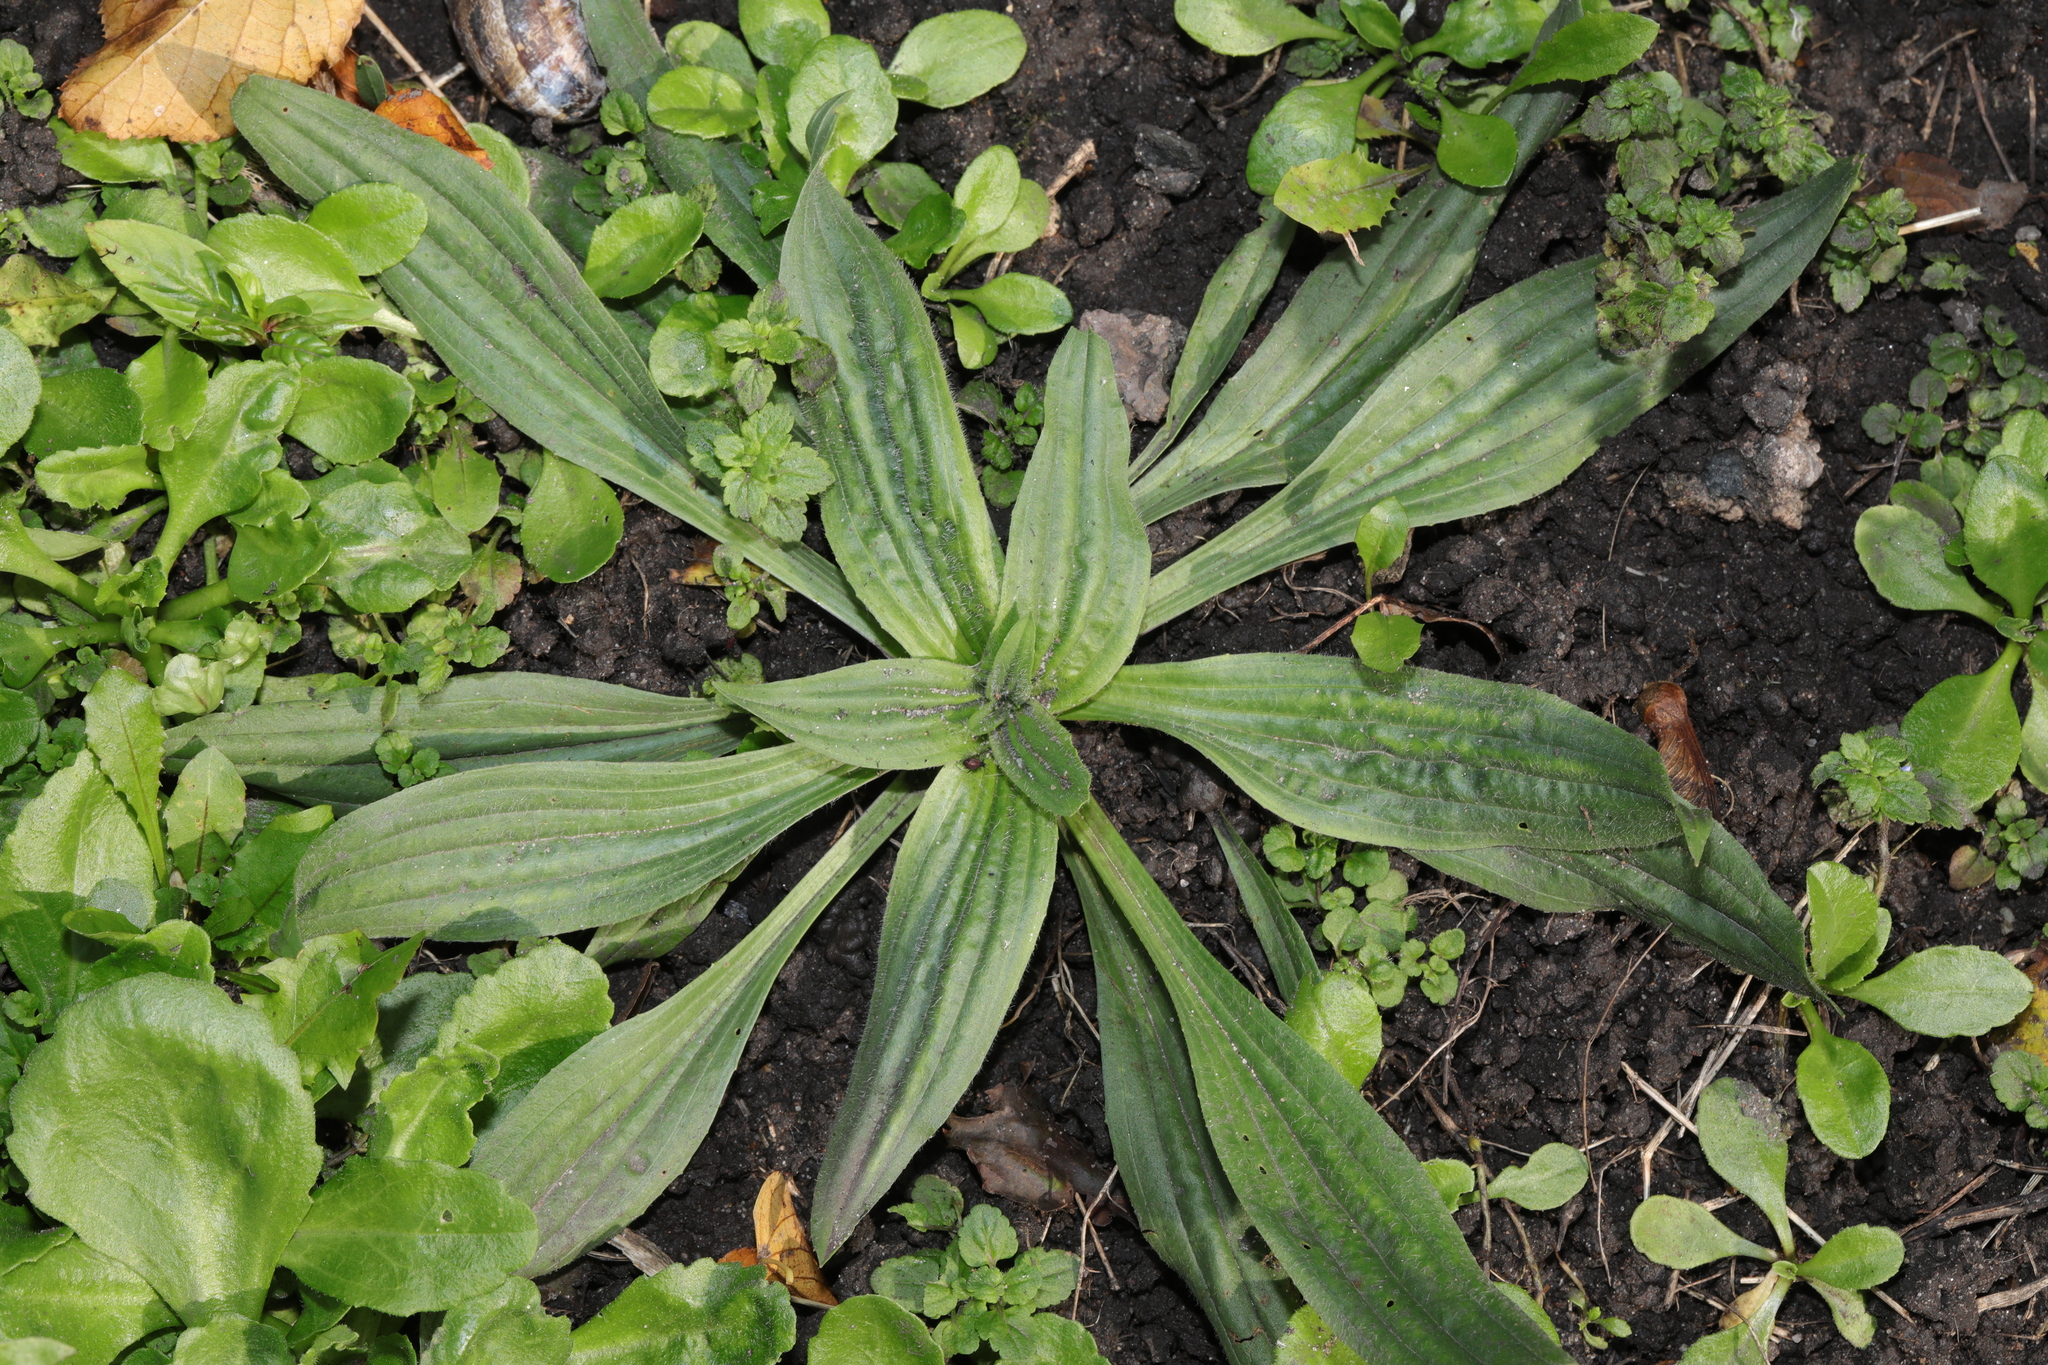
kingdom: Plantae
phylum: Tracheophyta
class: Magnoliopsida
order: Lamiales
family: Plantaginaceae
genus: Plantago
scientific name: Plantago lanceolata
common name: Ribwort plantain
